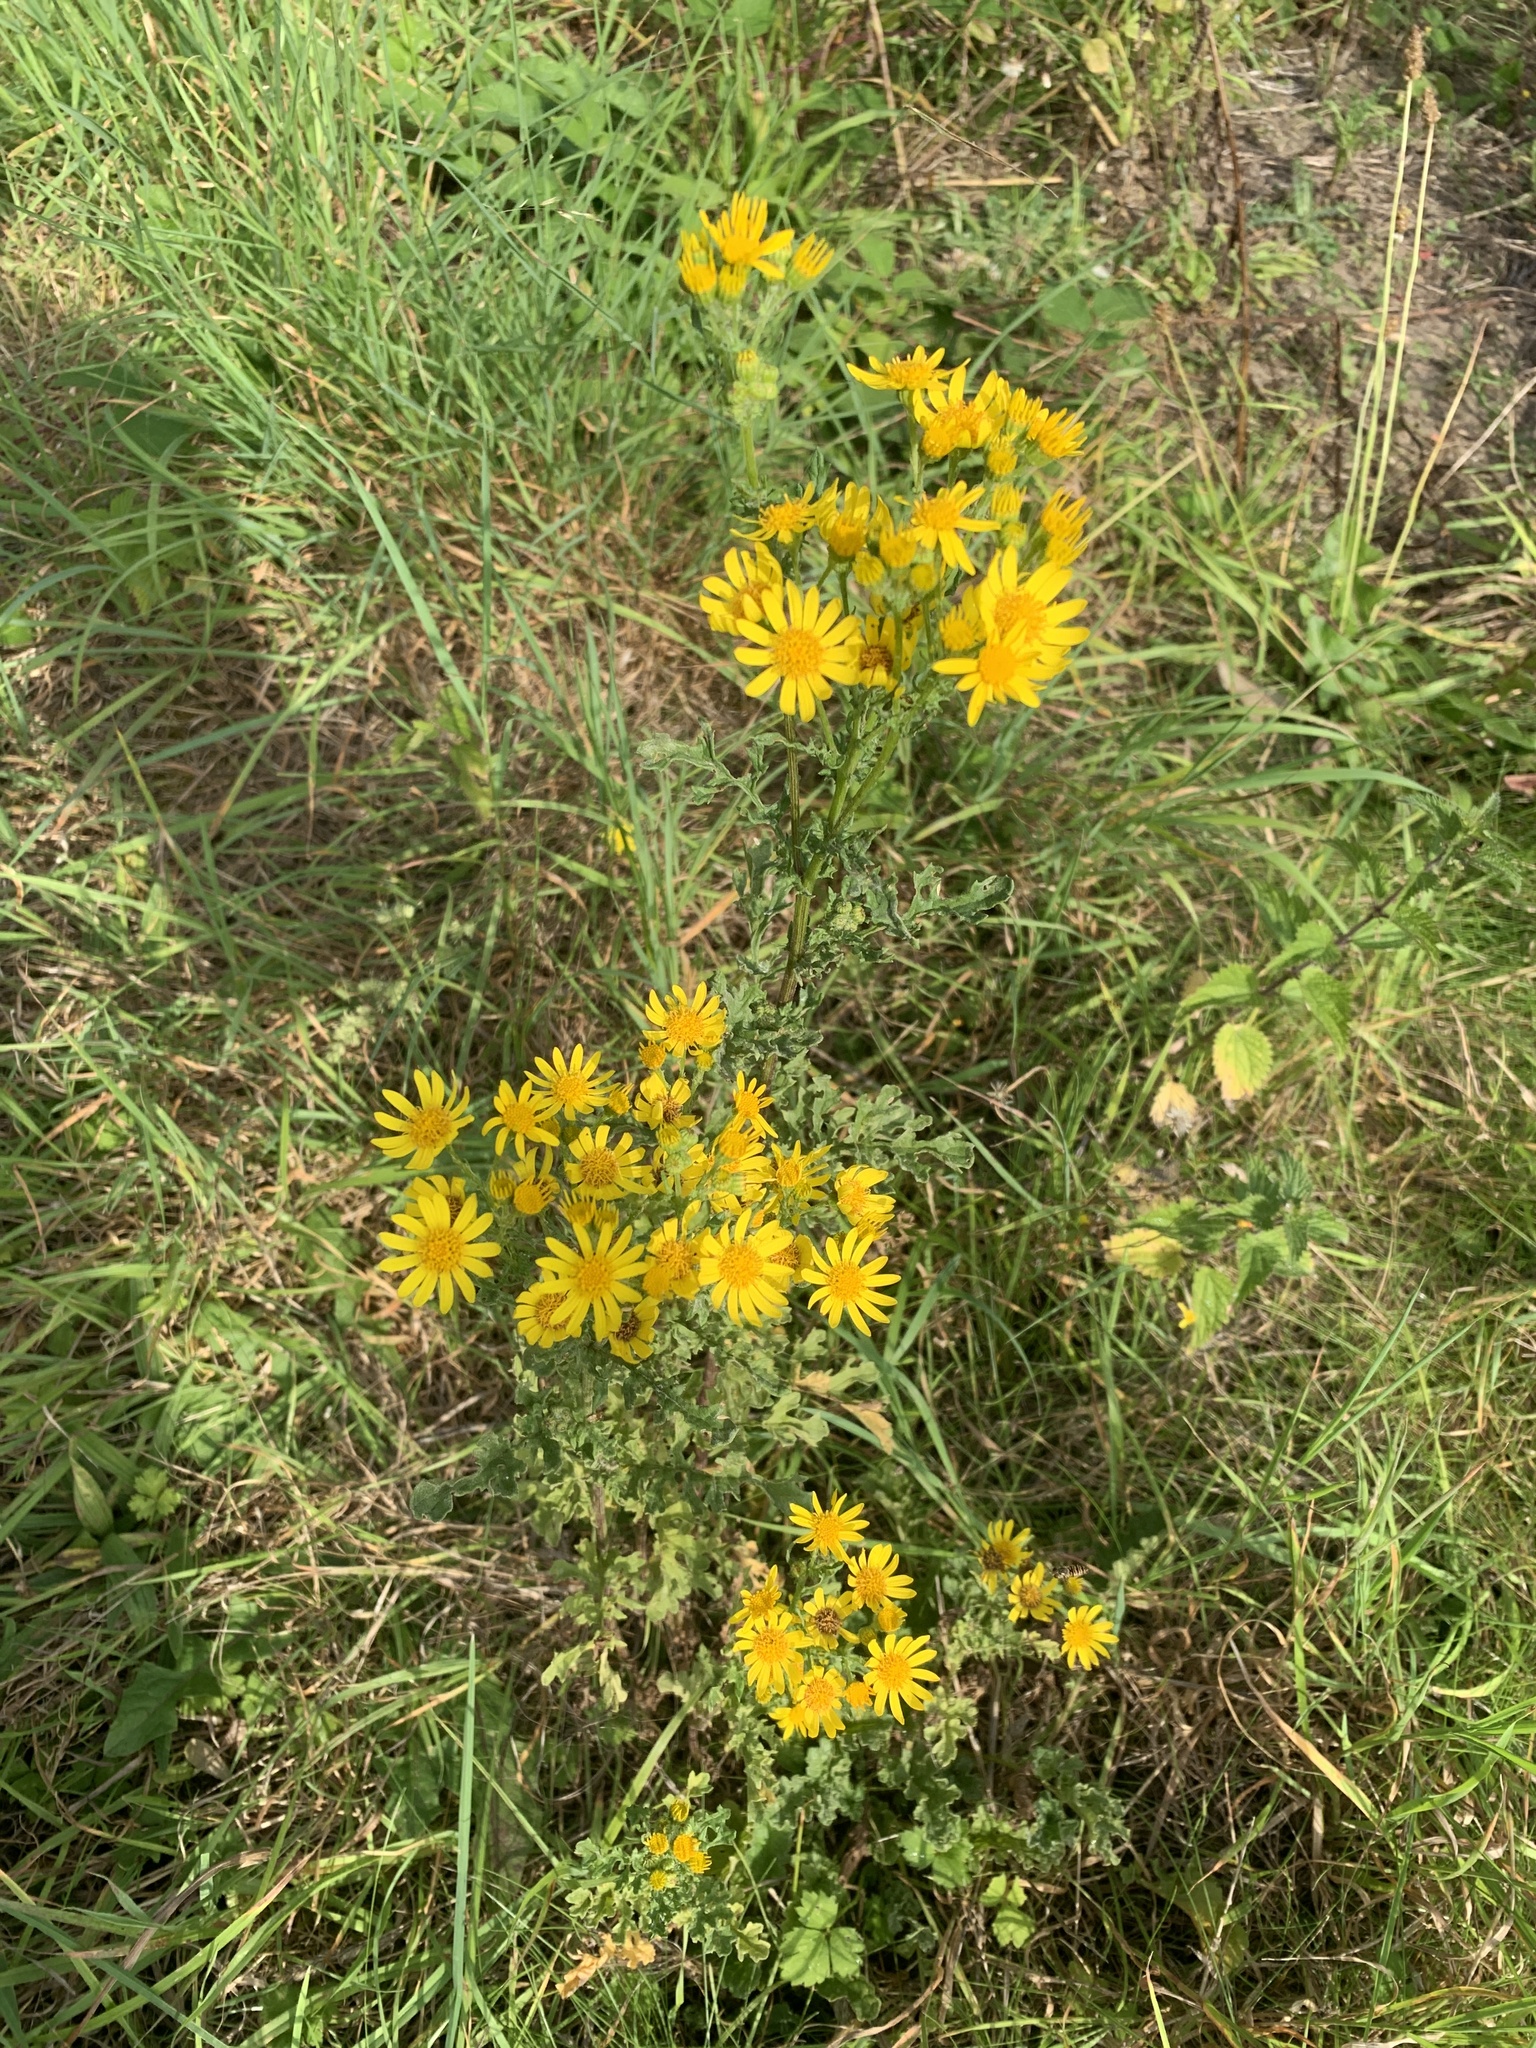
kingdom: Plantae
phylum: Tracheophyta
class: Magnoliopsida
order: Asterales
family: Asteraceae
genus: Jacobaea
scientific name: Jacobaea vulgaris
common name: Stinking willie
